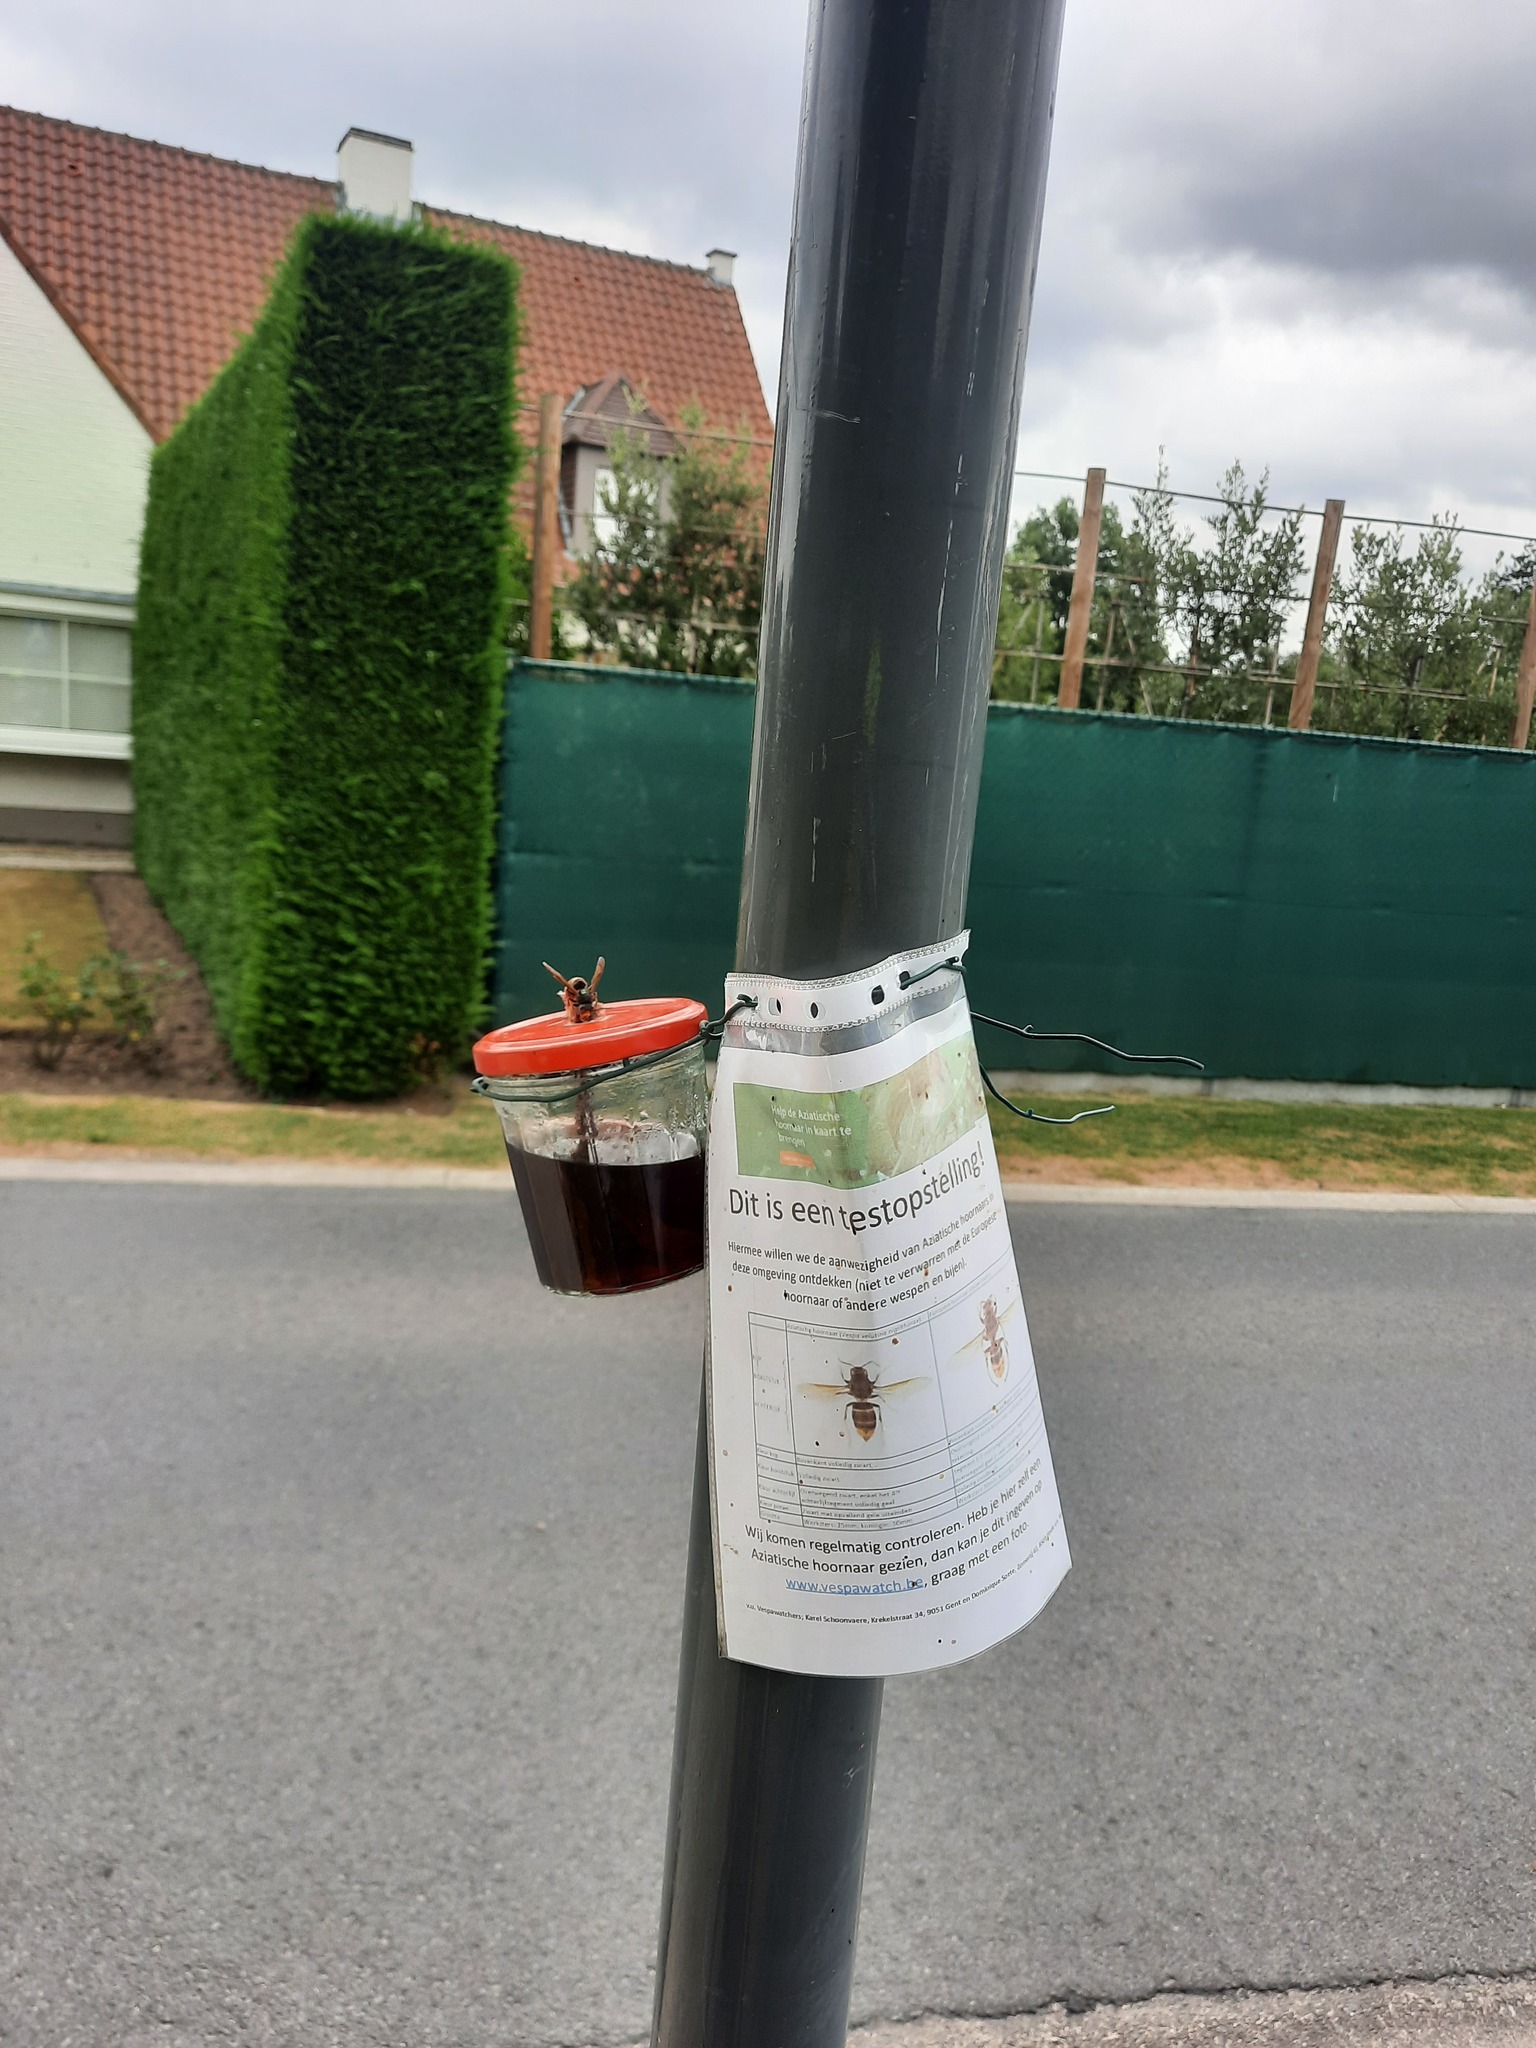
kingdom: Animalia
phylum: Arthropoda
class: Insecta
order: Hymenoptera
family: Vespidae
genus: Vespa
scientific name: Vespa velutina
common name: Asian hornet
